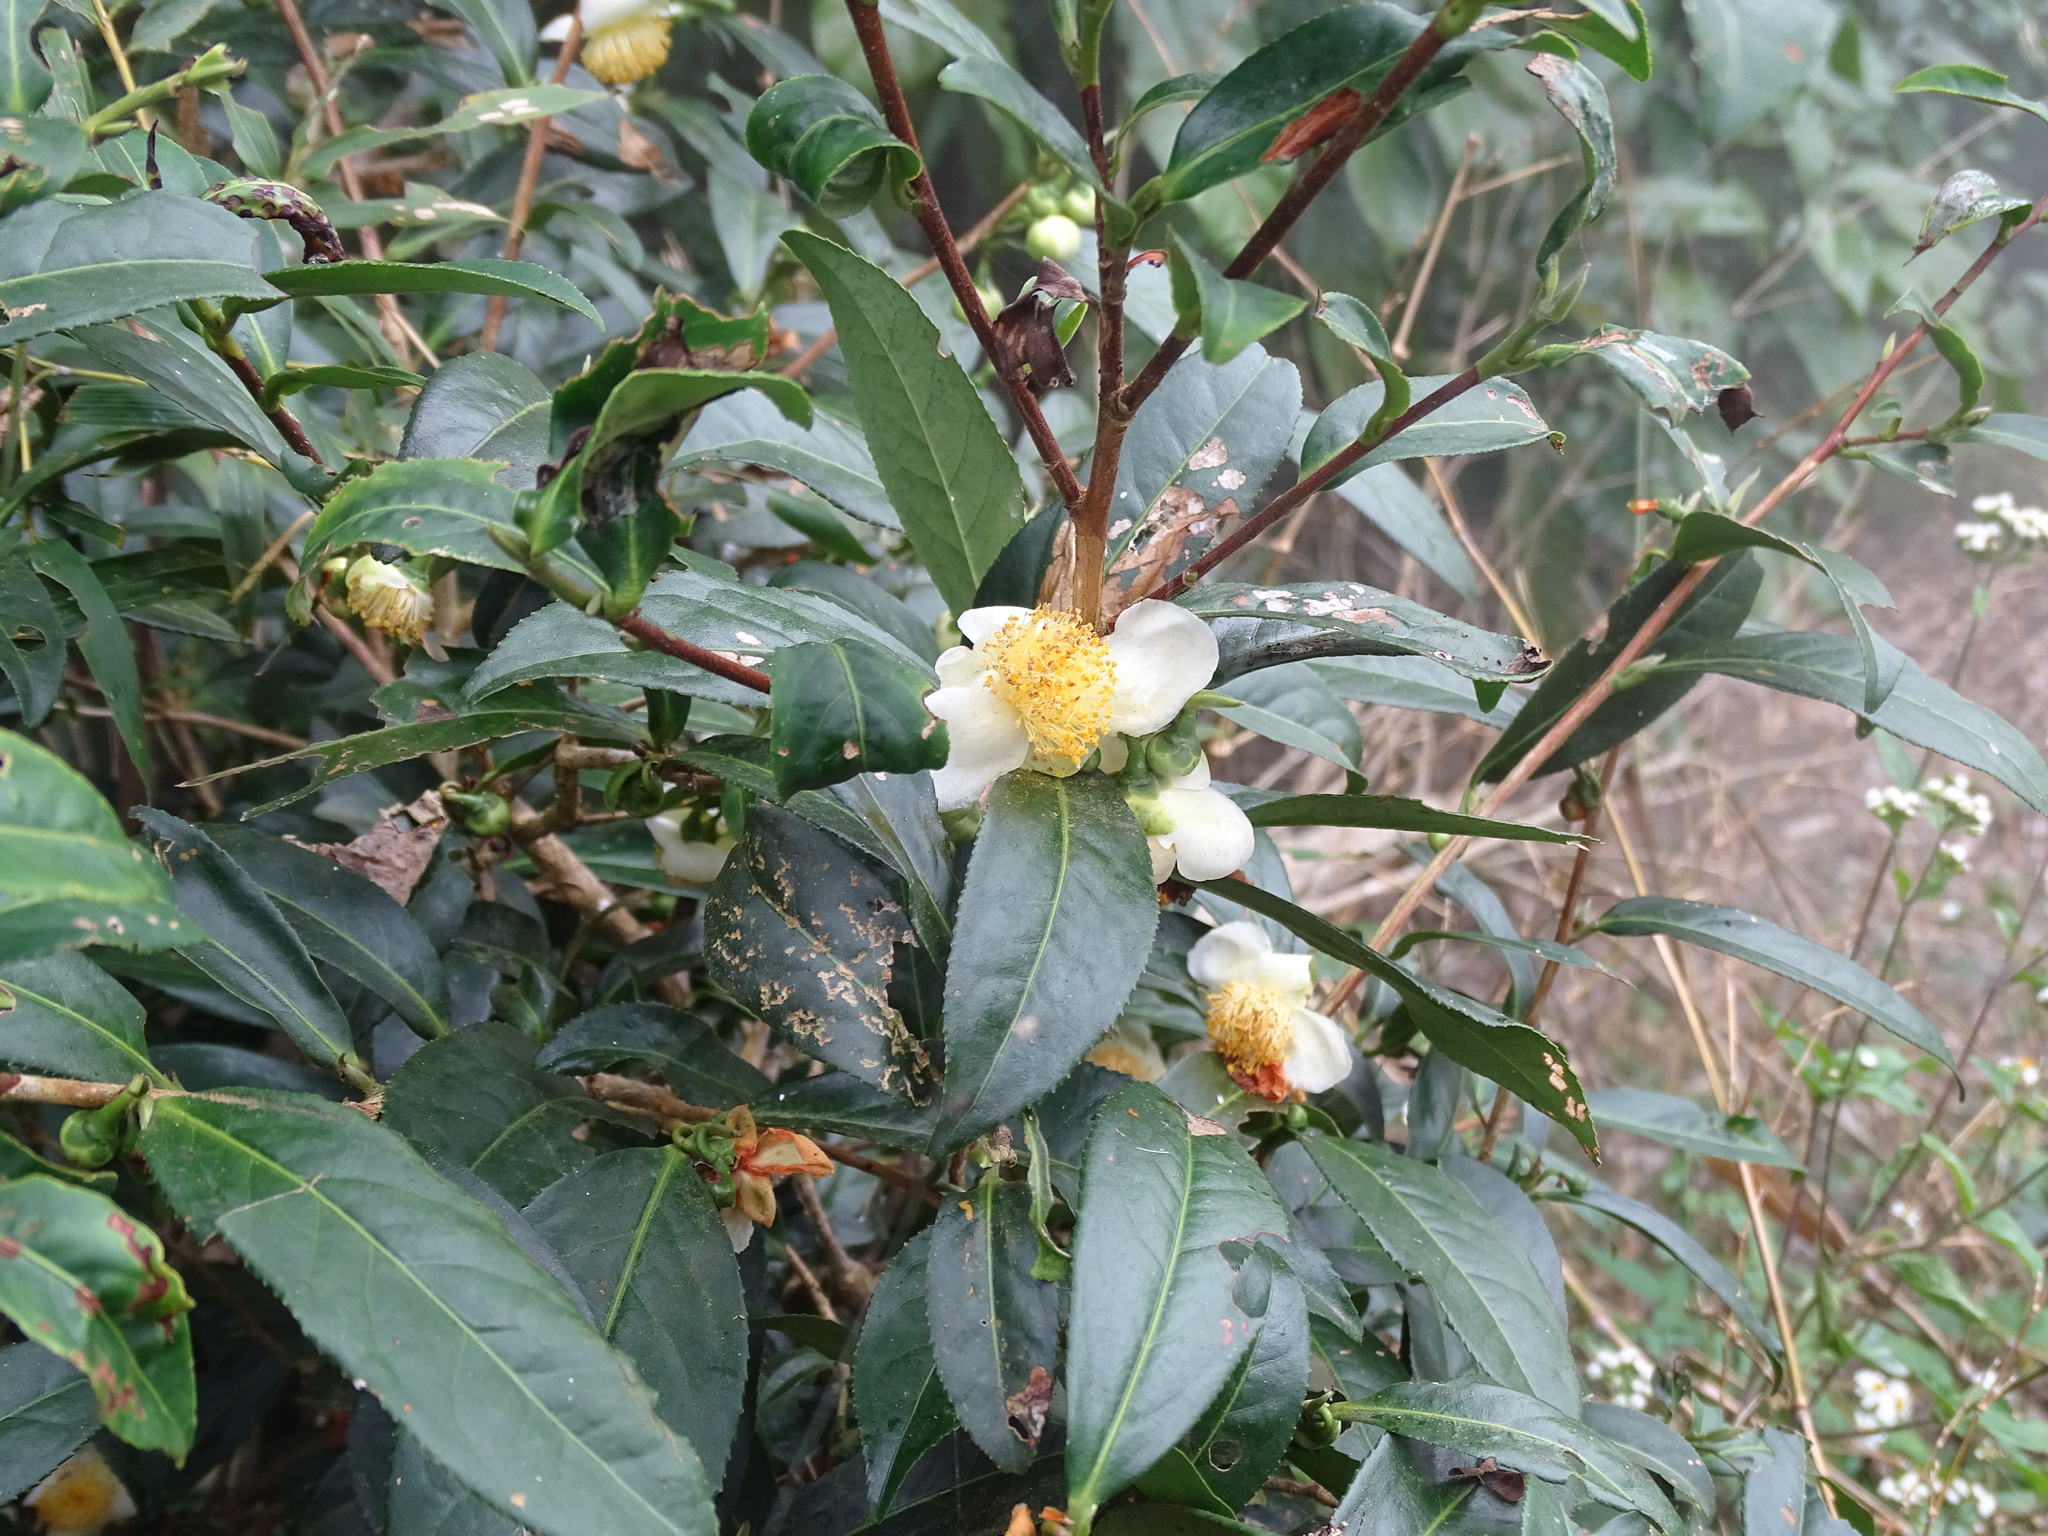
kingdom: Plantae
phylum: Tracheophyta
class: Magnoliopsida
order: Ericales
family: Theaceae
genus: Camellia
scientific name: Camellia sinensis
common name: Tea
